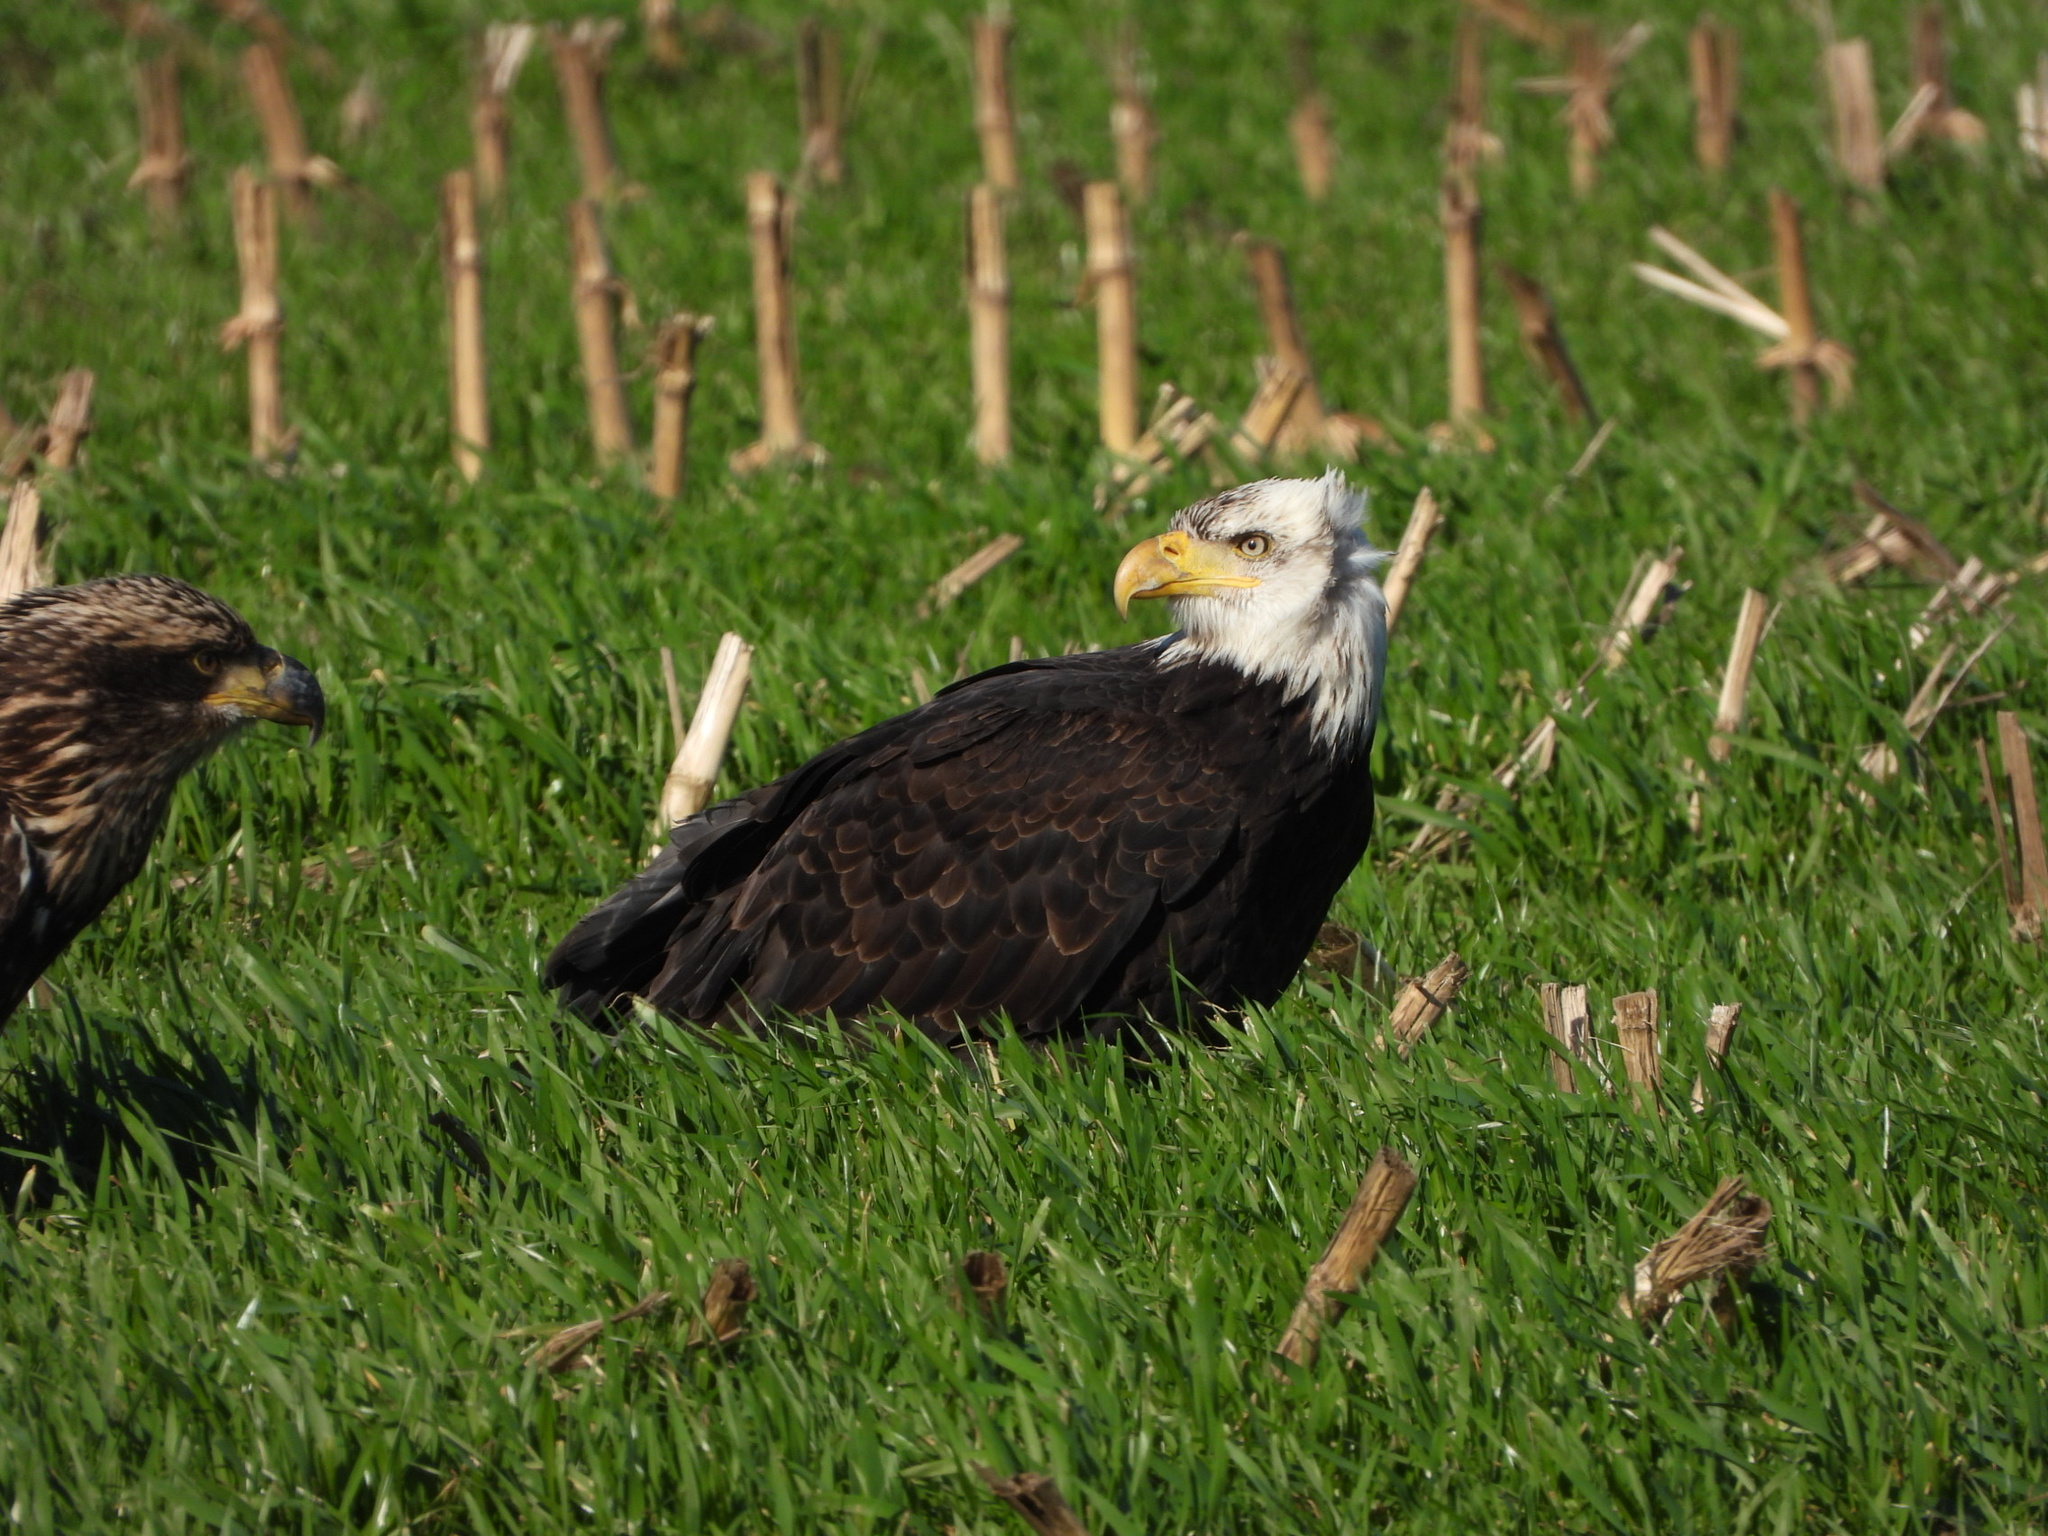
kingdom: Animalia
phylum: Chordata
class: Aves
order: Accipitriformes
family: Accipitridae
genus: Haliaeetus
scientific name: Haliaeetus leucocephalus
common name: Bald eagle
